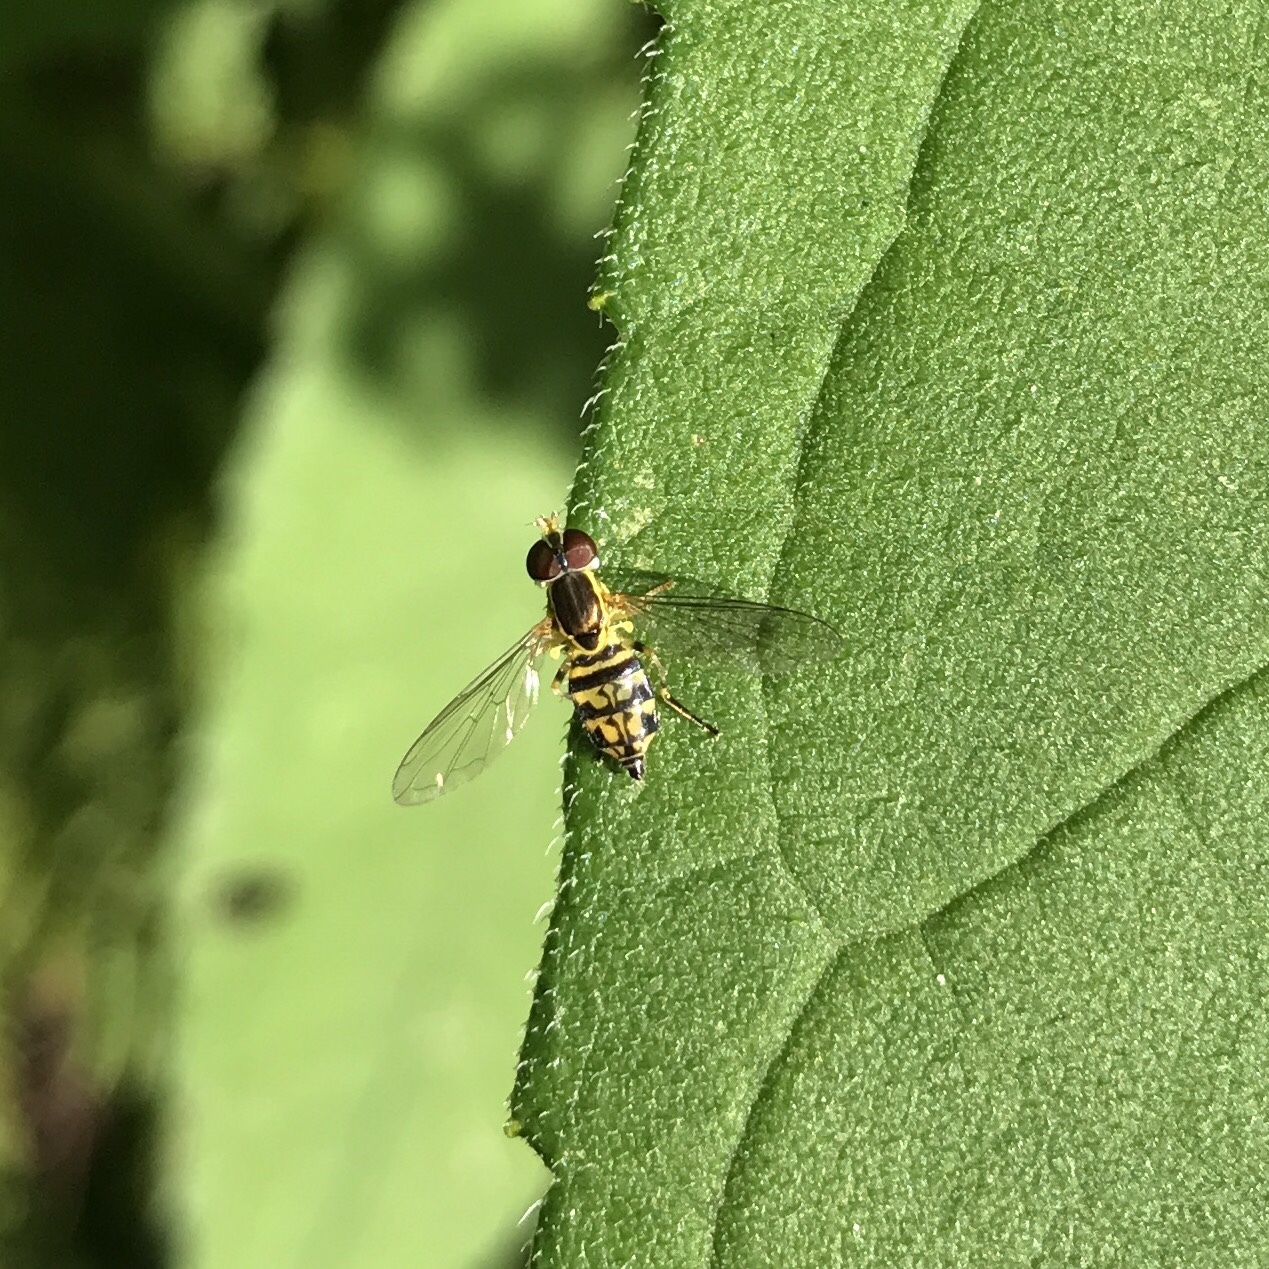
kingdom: Animalia
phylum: Arthropoda
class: Insecta
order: Diptera
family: Syrphidae
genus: Toxomerus
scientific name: Toxomerus geminatus
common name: Eastern calligrapher
